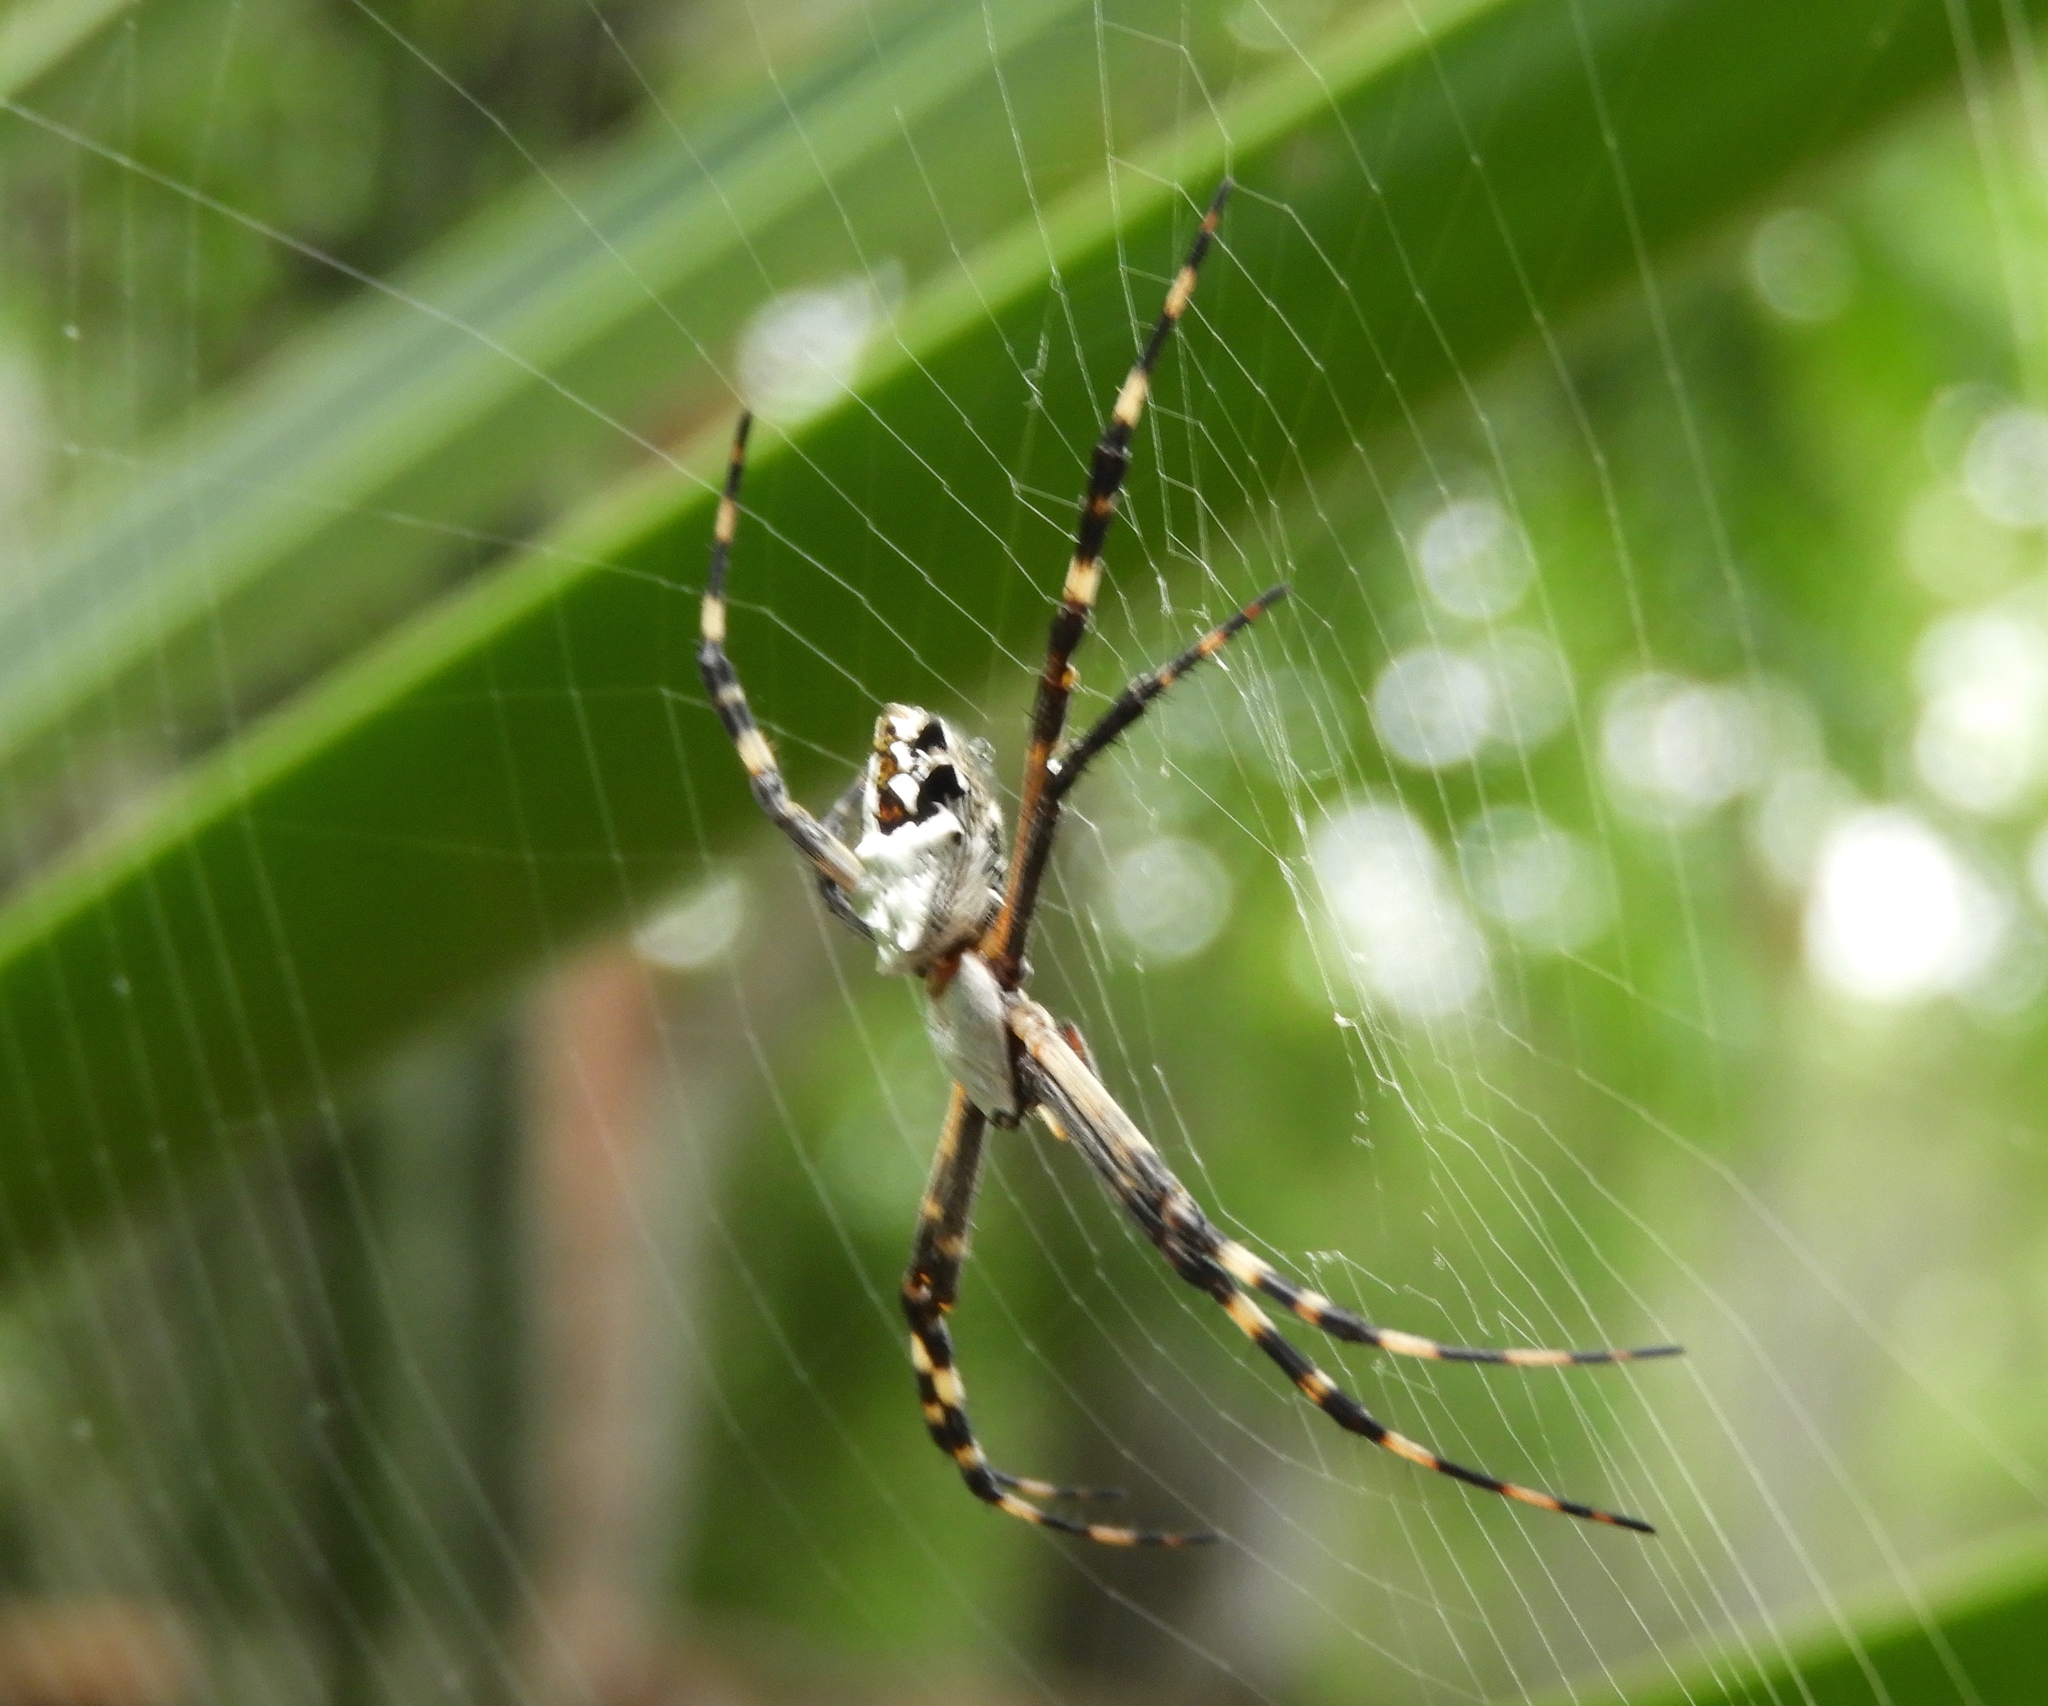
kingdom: Animalia
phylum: Arthropoda
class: Arachnida
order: Araneae
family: Araneidae
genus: Argiope
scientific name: Argiope argentata
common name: Orb weavers
